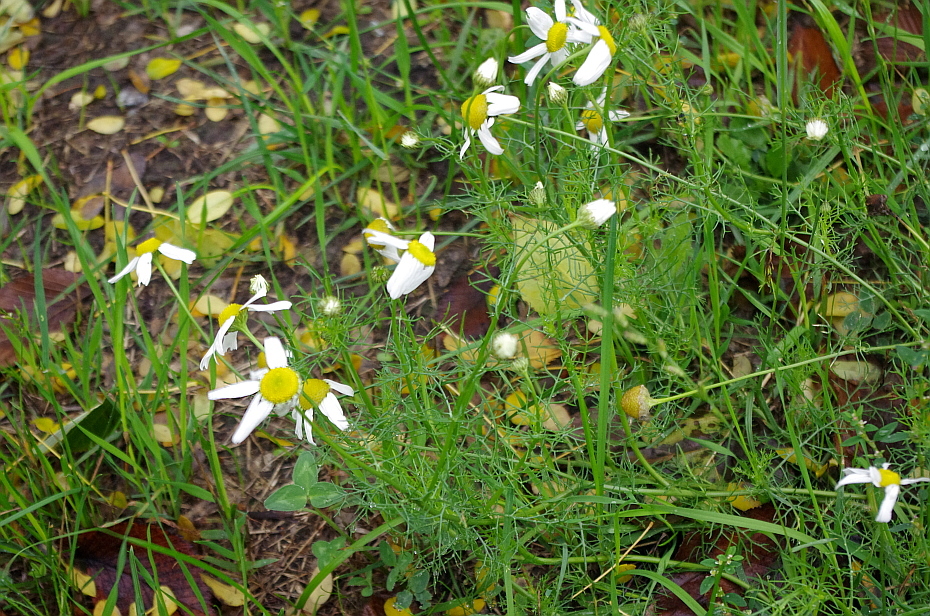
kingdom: Plantae
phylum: Tracheophyta
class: Magnoliopsida
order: Asterales
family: Asteraceae
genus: Tripleurospermum
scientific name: Tripleurospermum inodorum
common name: Scentless mayweed
